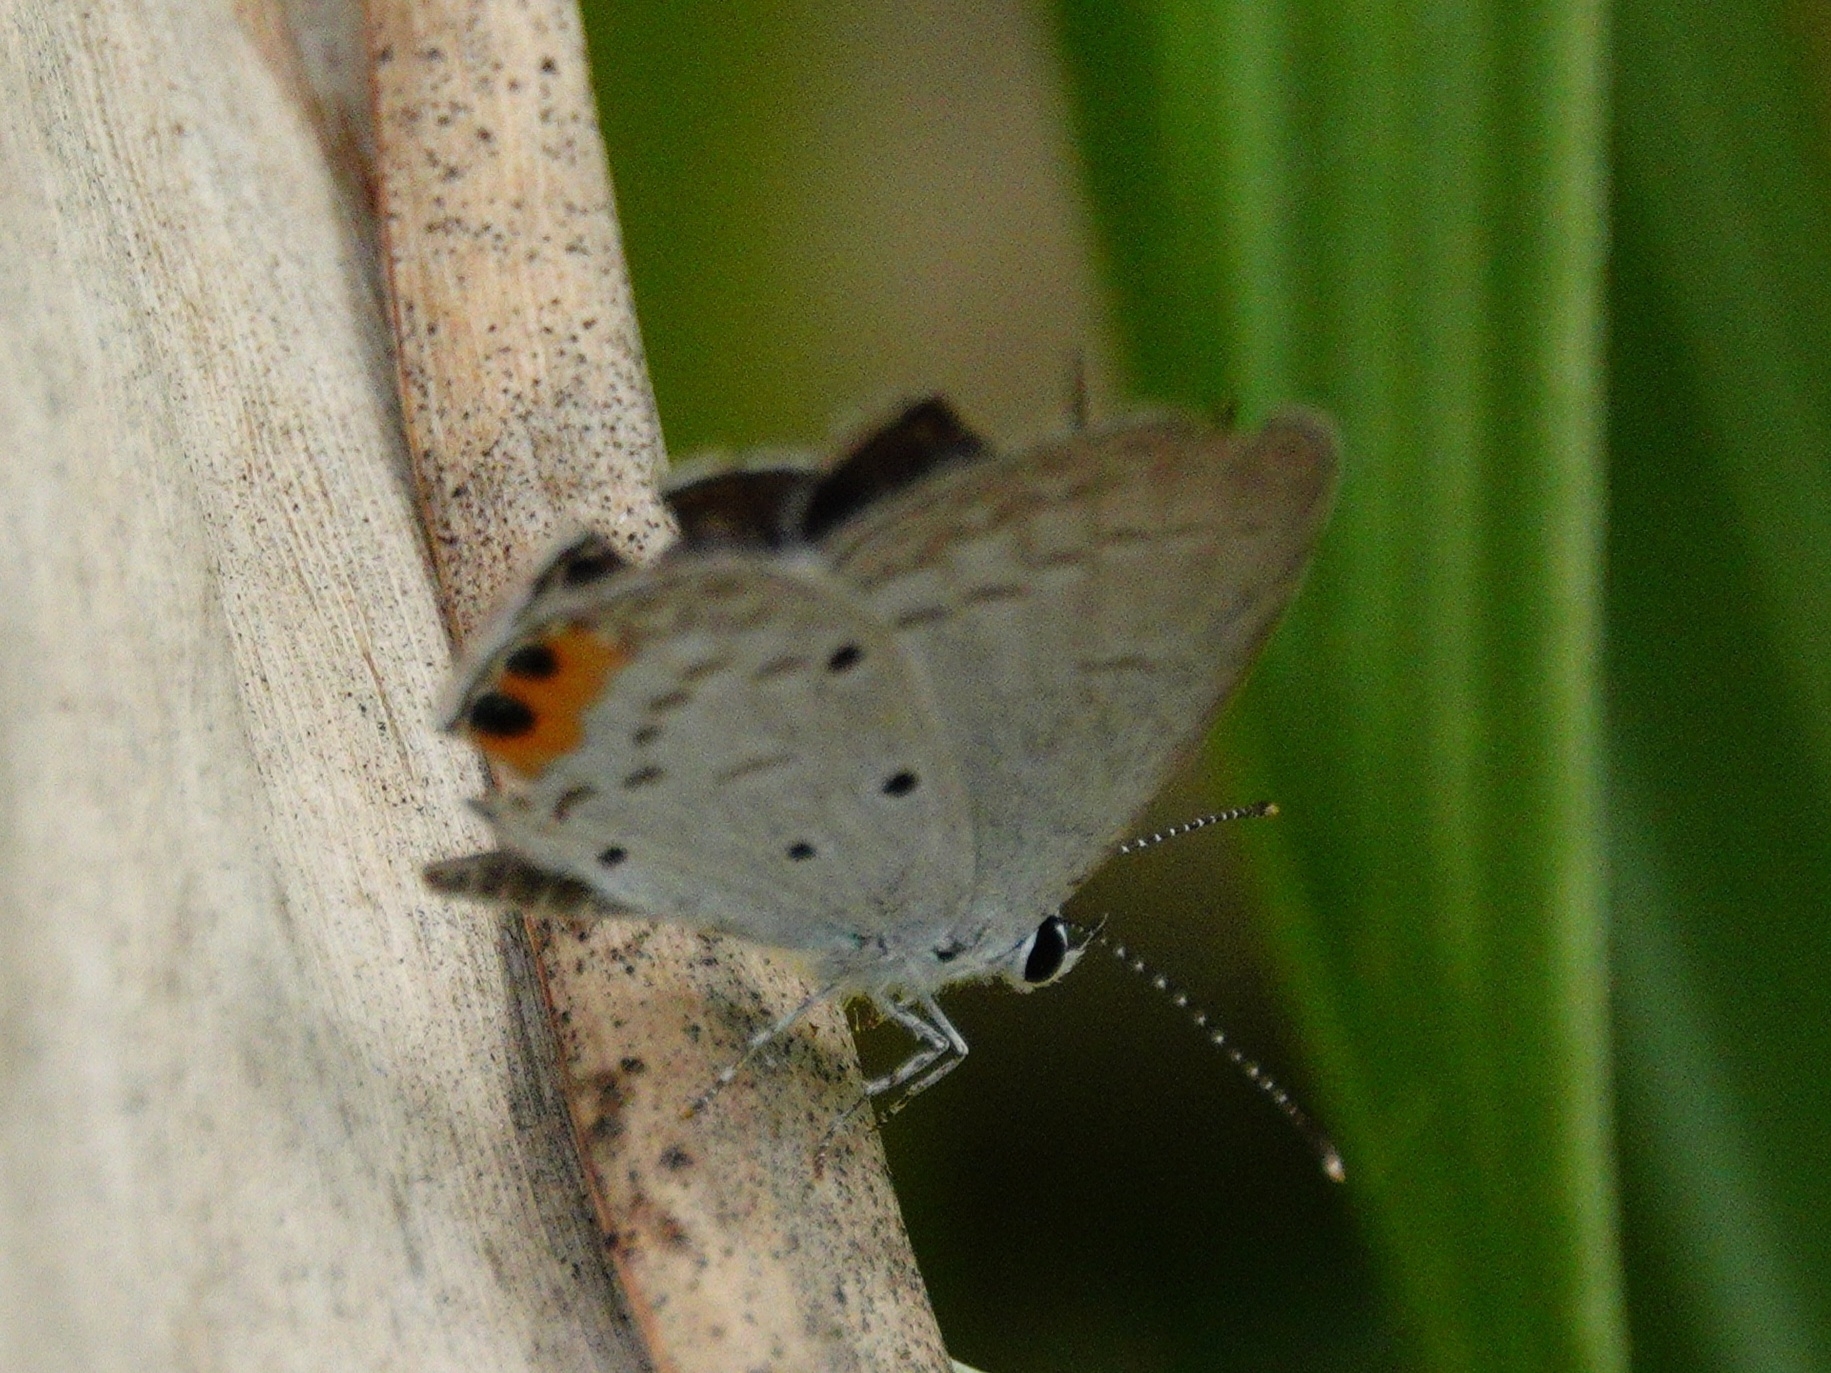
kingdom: Animalia
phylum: Arthropoda
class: Insecta
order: Lepidoptera
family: Lycaenidae
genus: Everes
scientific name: Everes lacturnus
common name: Orange-tipped pea-blue
